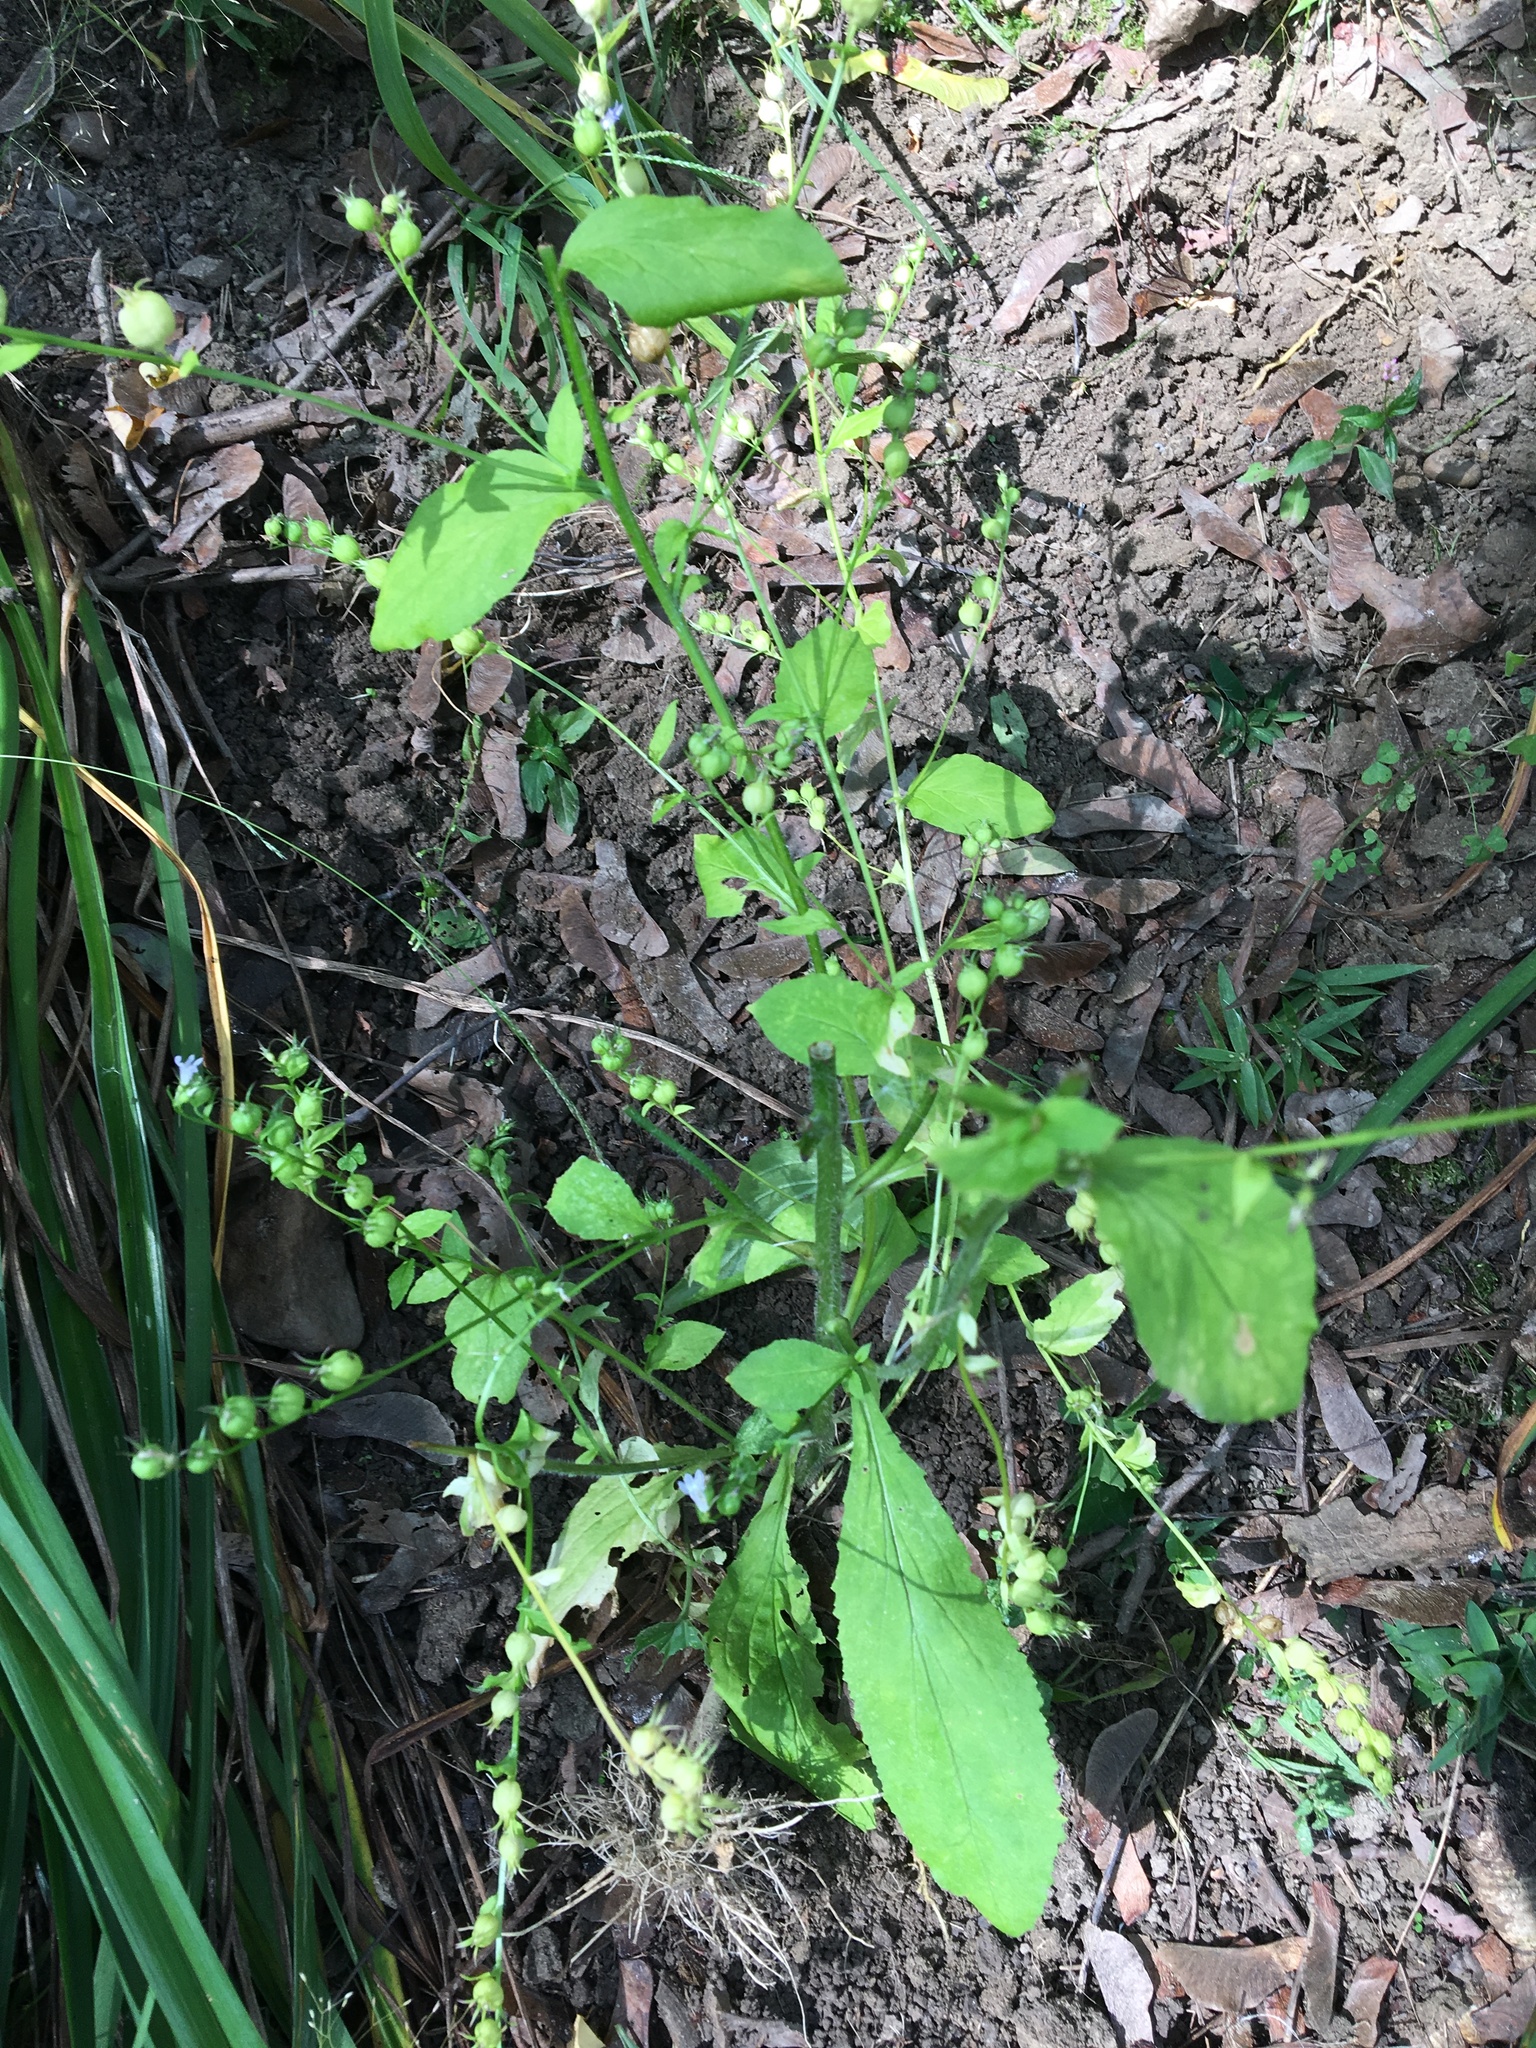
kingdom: Plantae
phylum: Tracheophyta
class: Magnoliopsida
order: Asterales
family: Campanulaceae
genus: Lobelia
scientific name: Lobelia inflata
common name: Indian tobacco
